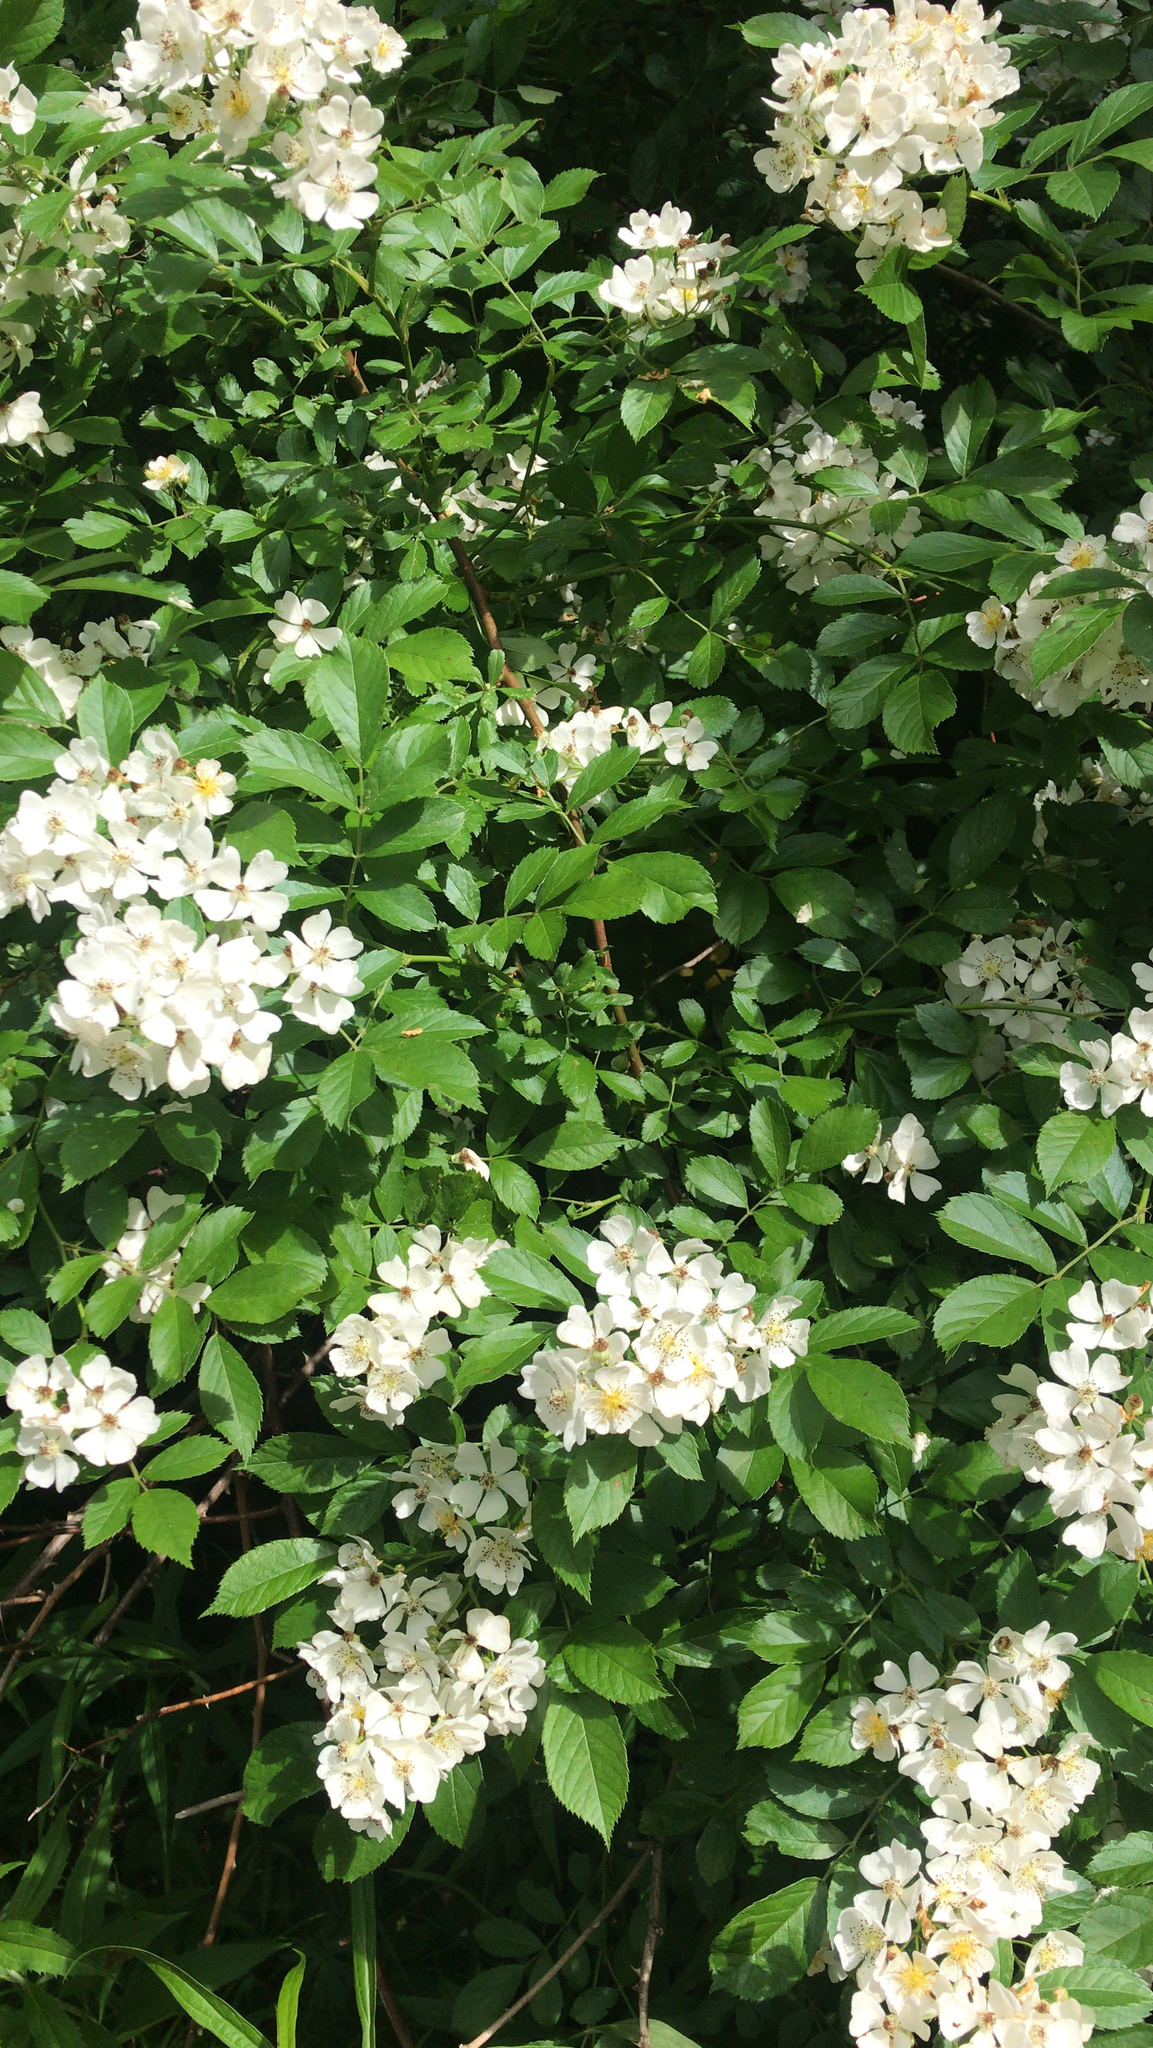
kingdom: Plantae
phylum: Tracheophyta
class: Magnoliopsida
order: Rosales
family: Rosaceae
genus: Rosa
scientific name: Rosa multiflora
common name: Multiflora rose
